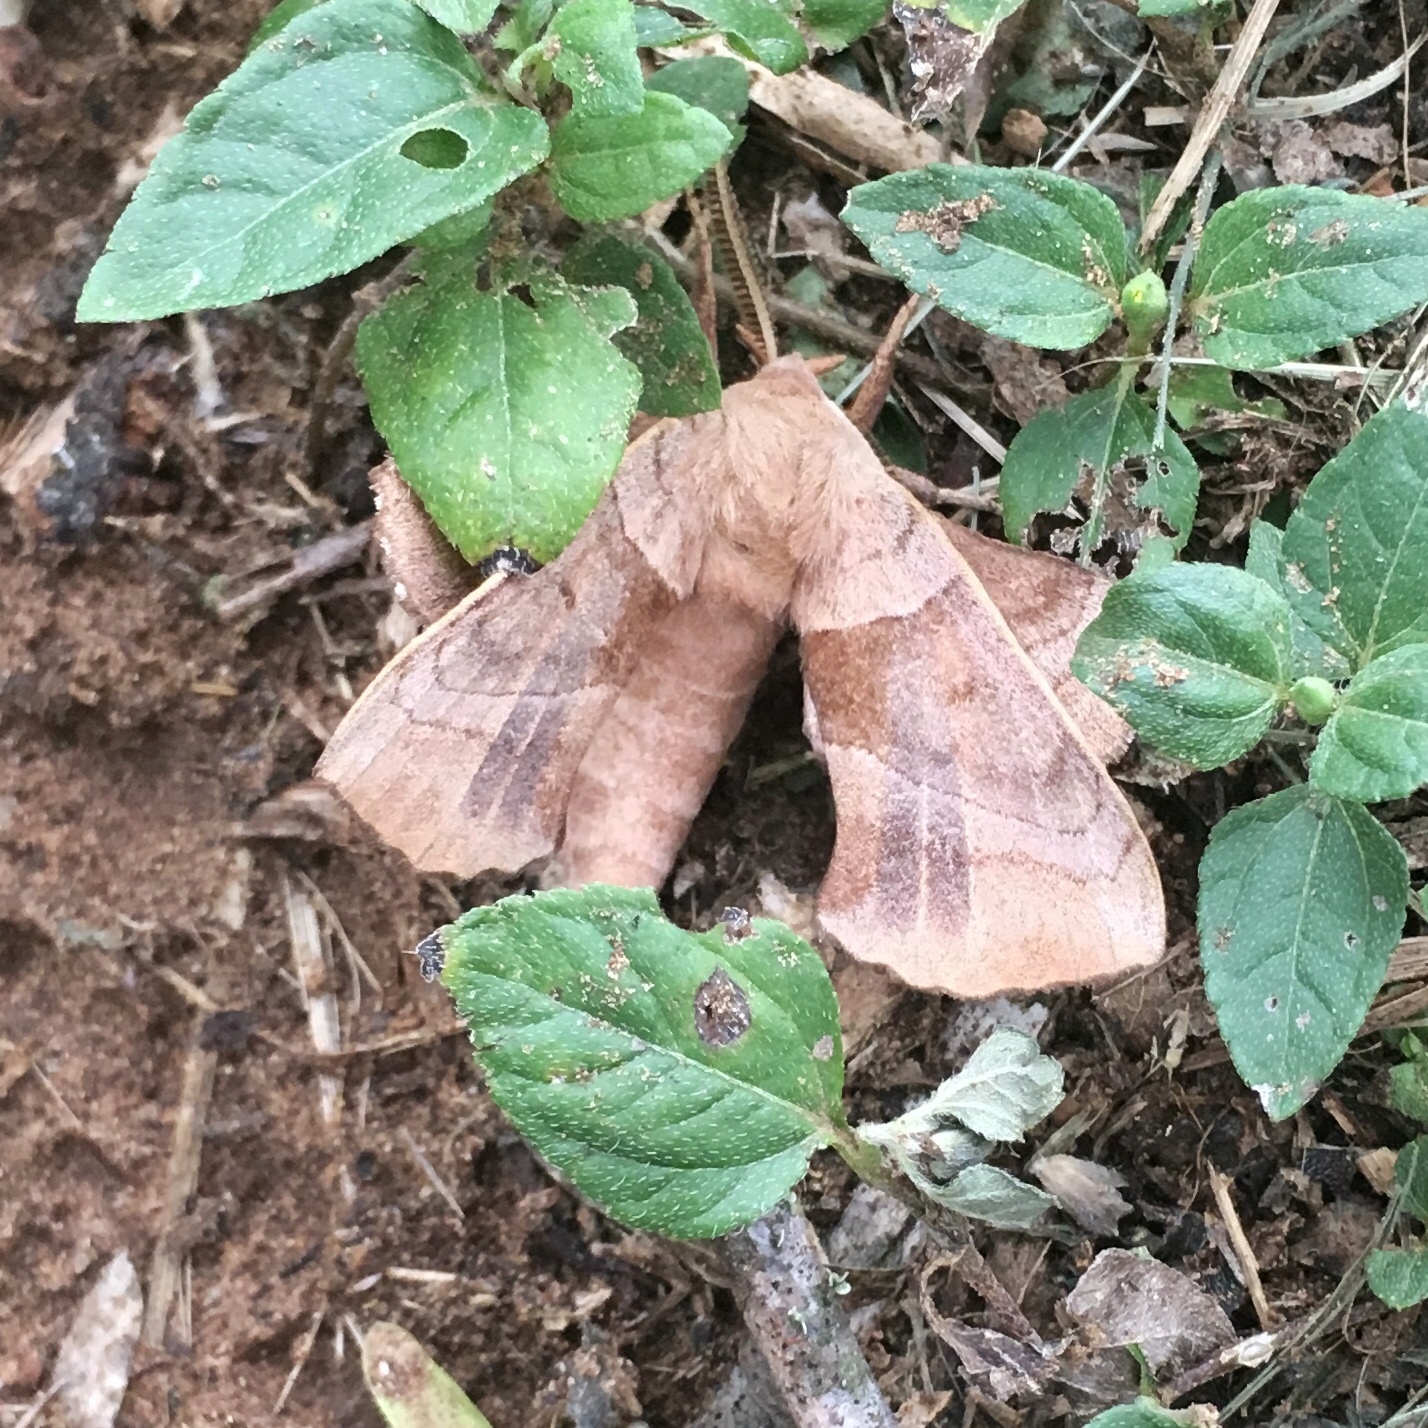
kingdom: Animalia
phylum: Arthropoda
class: Insecta
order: Lepidoptera
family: Sphingidae
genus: Amorpha
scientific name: Amorpha juglandis
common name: Walnut sphinx
